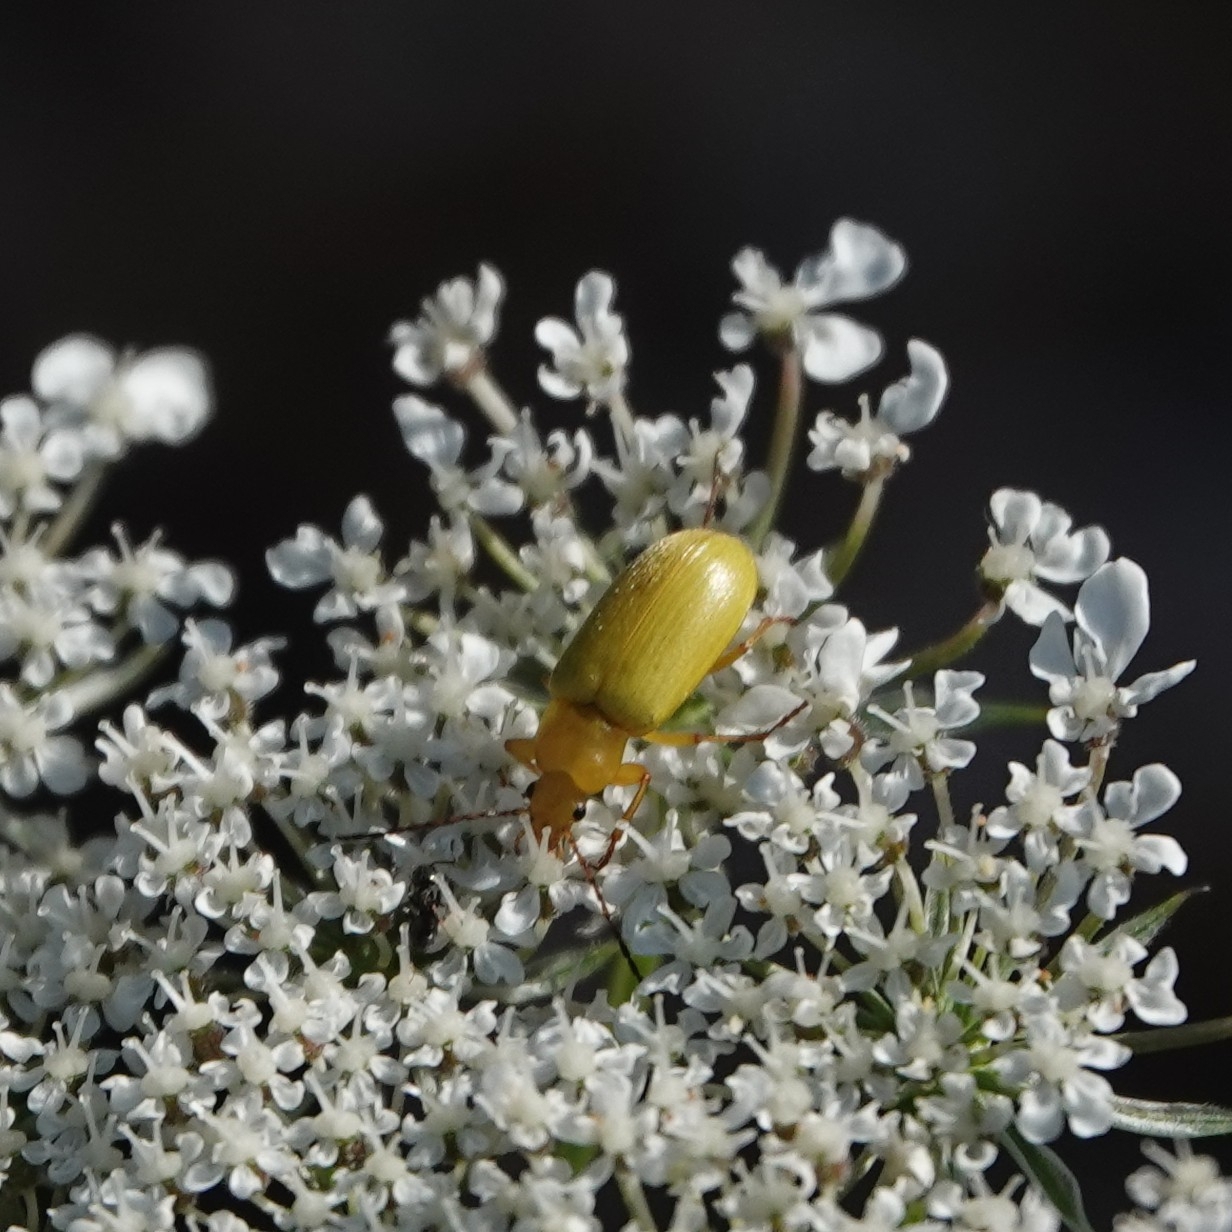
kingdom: Animalia
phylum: Arthropoda
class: Insecta
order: Coleoptera
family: Tenebrionidae
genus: Cteniopus
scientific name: Cteniopus sulphureus
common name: Sulphur beetle
